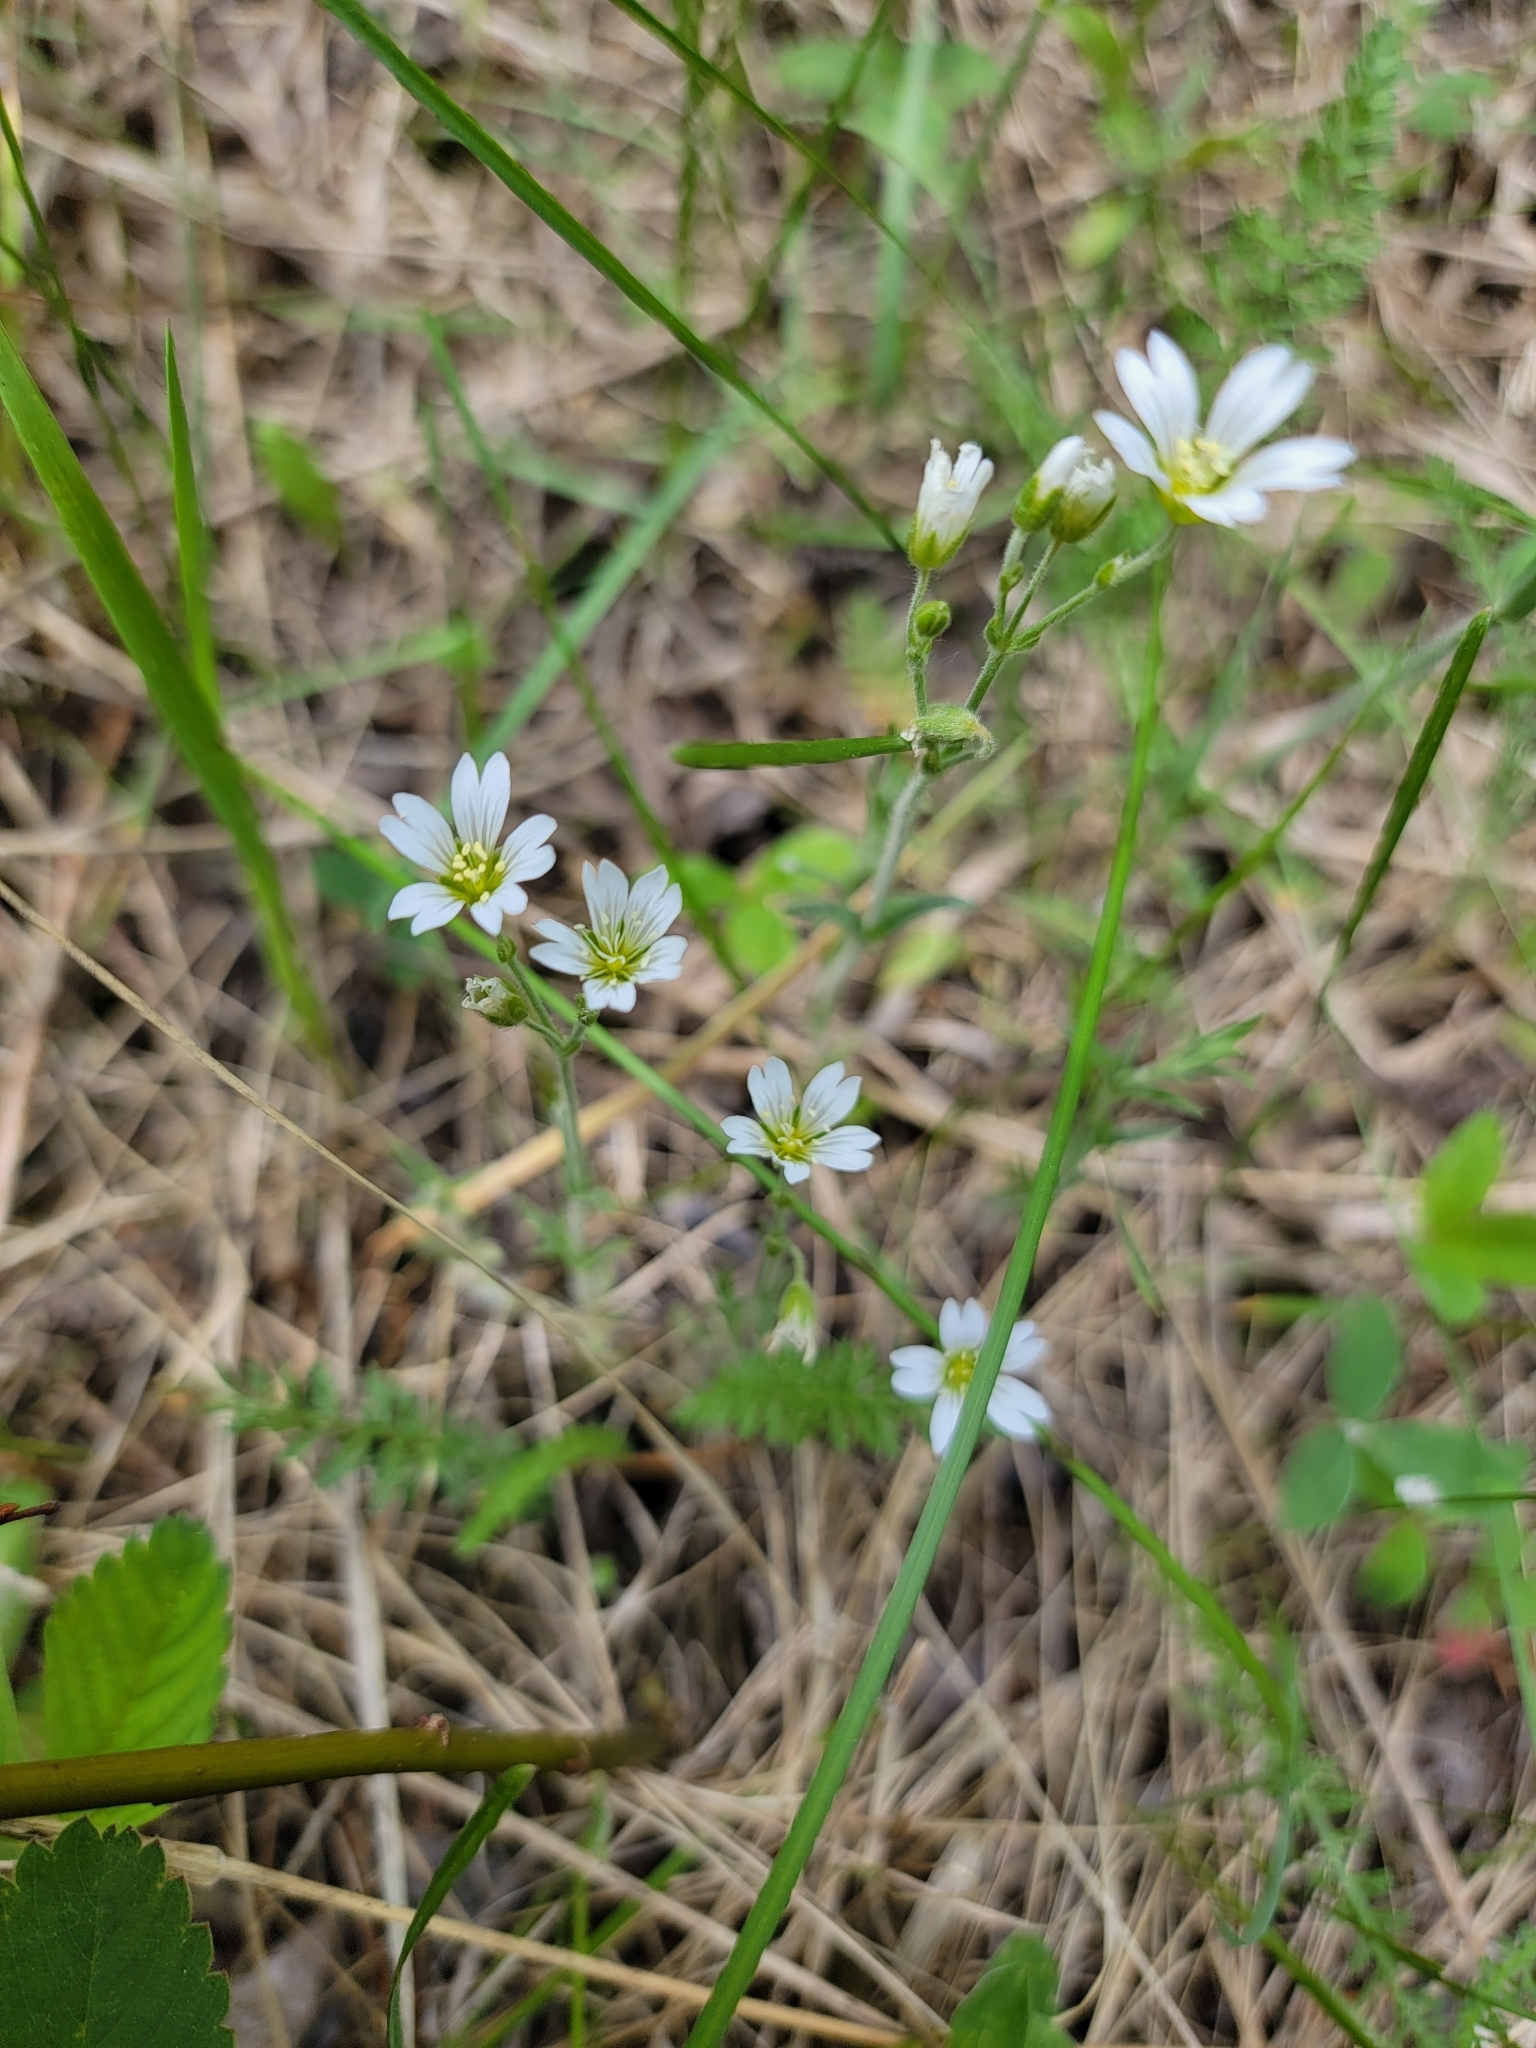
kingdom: Plantae
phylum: Tracheophyta
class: Magnoliopsida
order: Caryophyllales
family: Caryophyllaceae
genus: Cerastium
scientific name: Cerastium arvense
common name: Field mouse-ear
